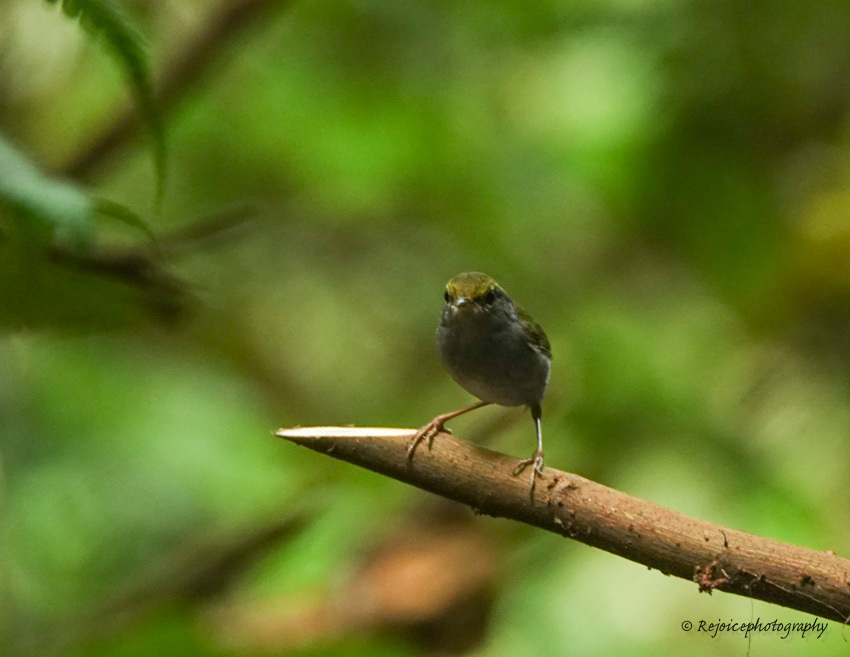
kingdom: Animalia
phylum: Chordata
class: Aves
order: Passeriformes
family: Cettiidae
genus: Tesia
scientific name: Tesia cyaniventer
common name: Grey-bellied tesia
